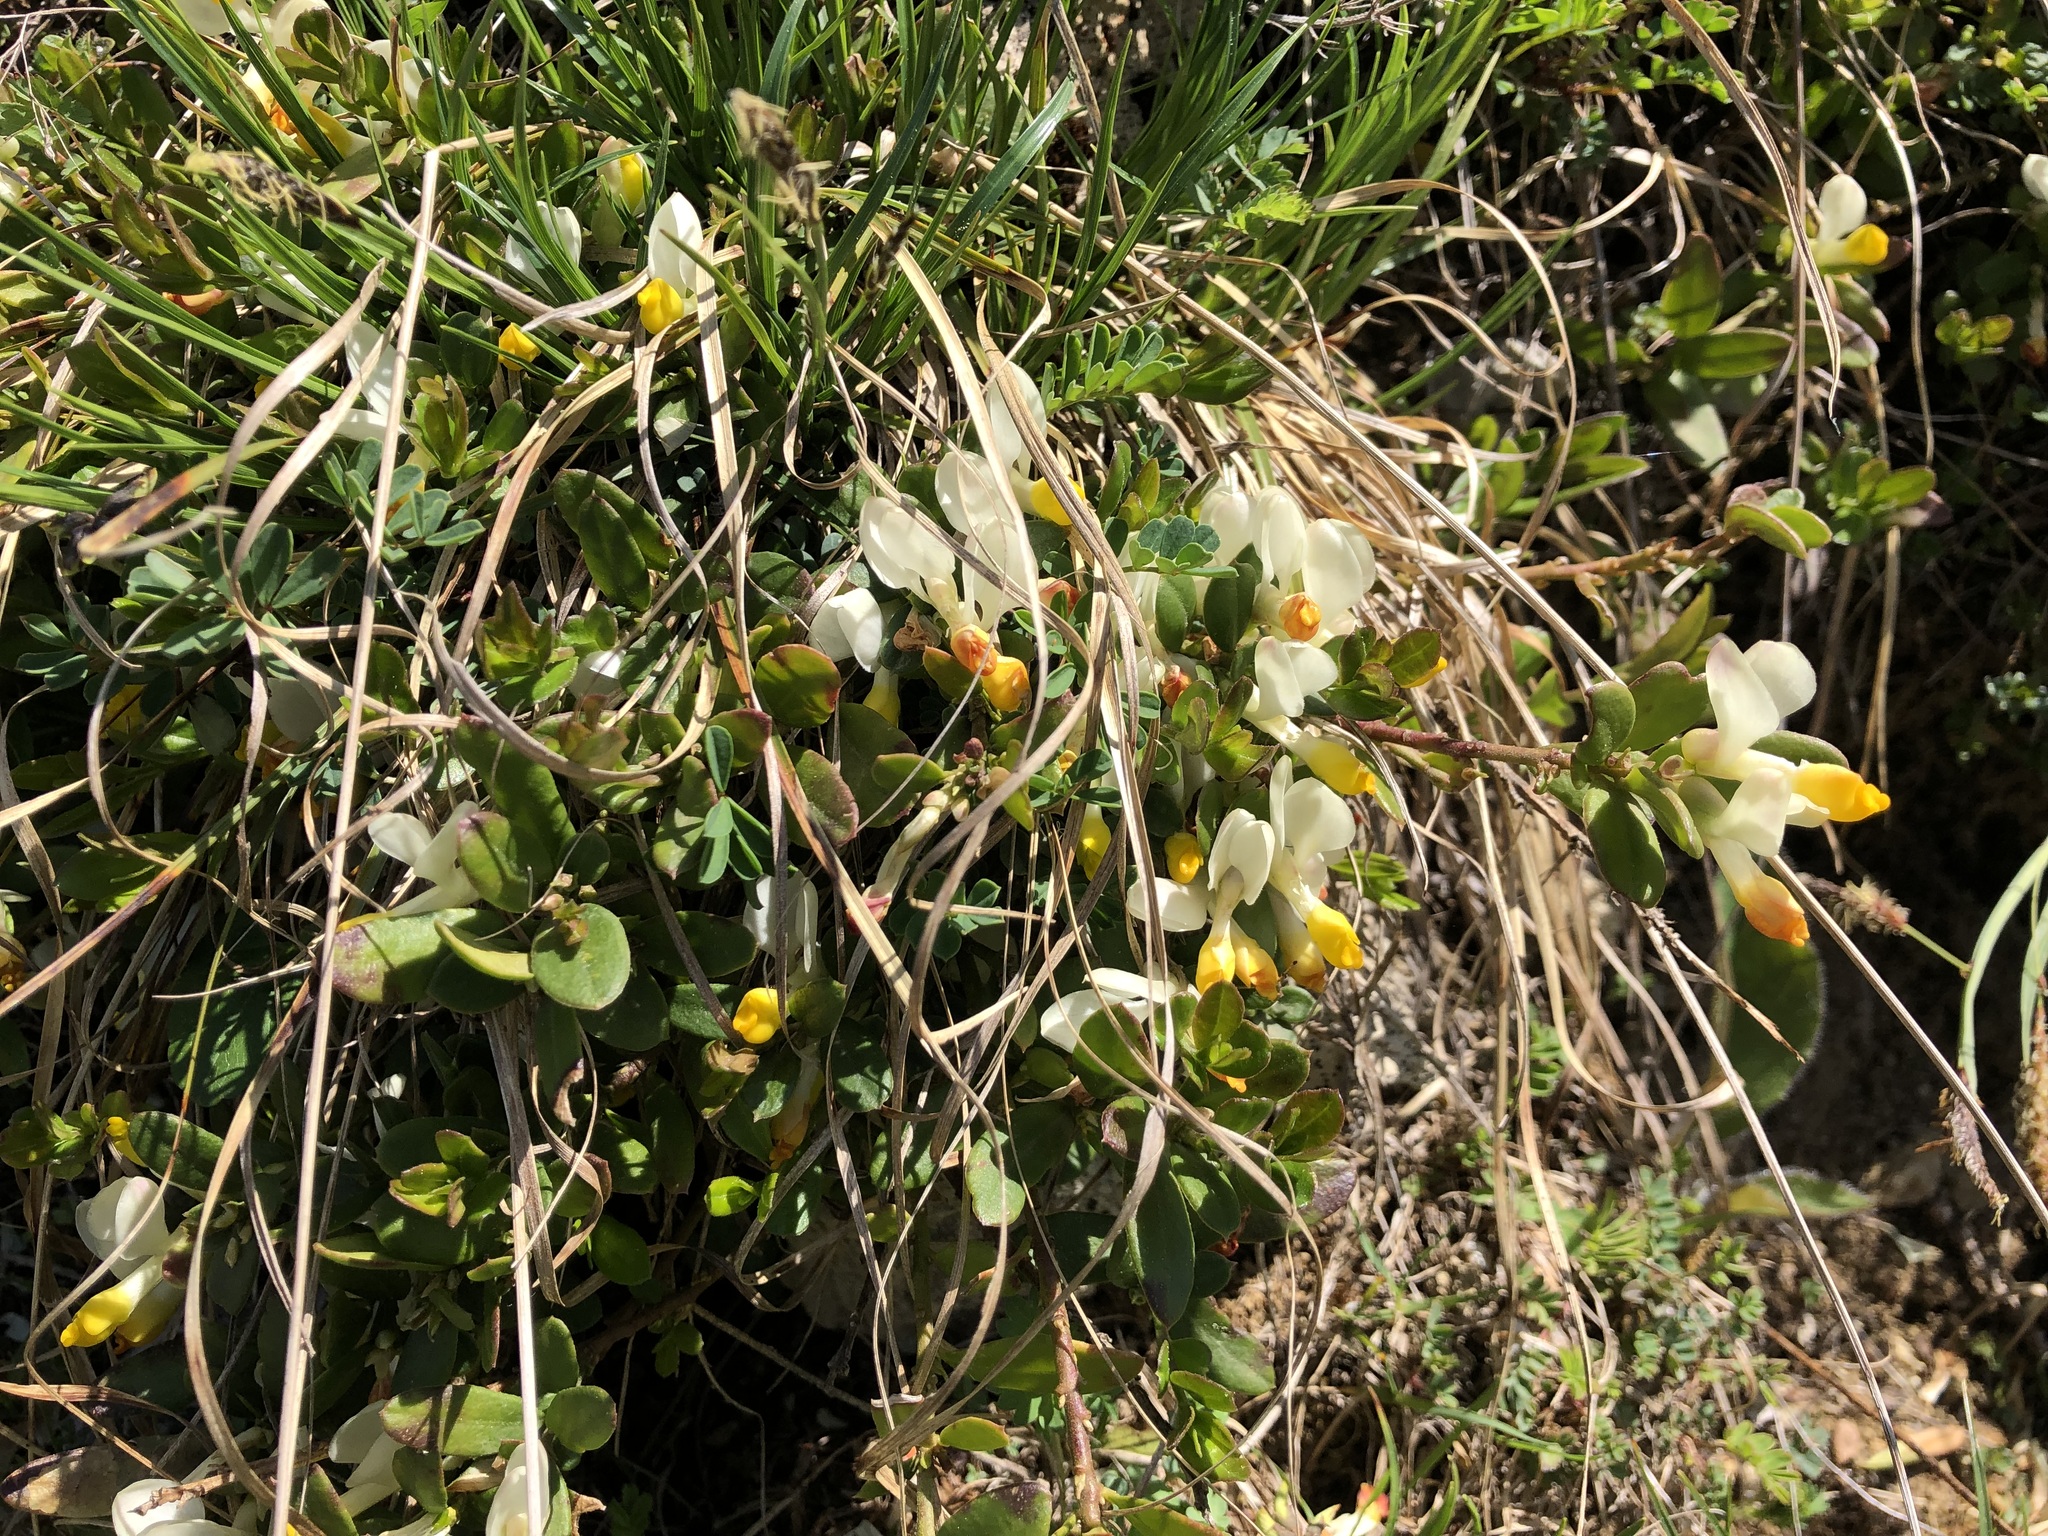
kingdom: Plantae
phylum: Tracheophyta
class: Magnoliopsida
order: Fabales
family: Polygalaceae
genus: Polygaloides
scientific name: Polygaloides chamaebuxus
